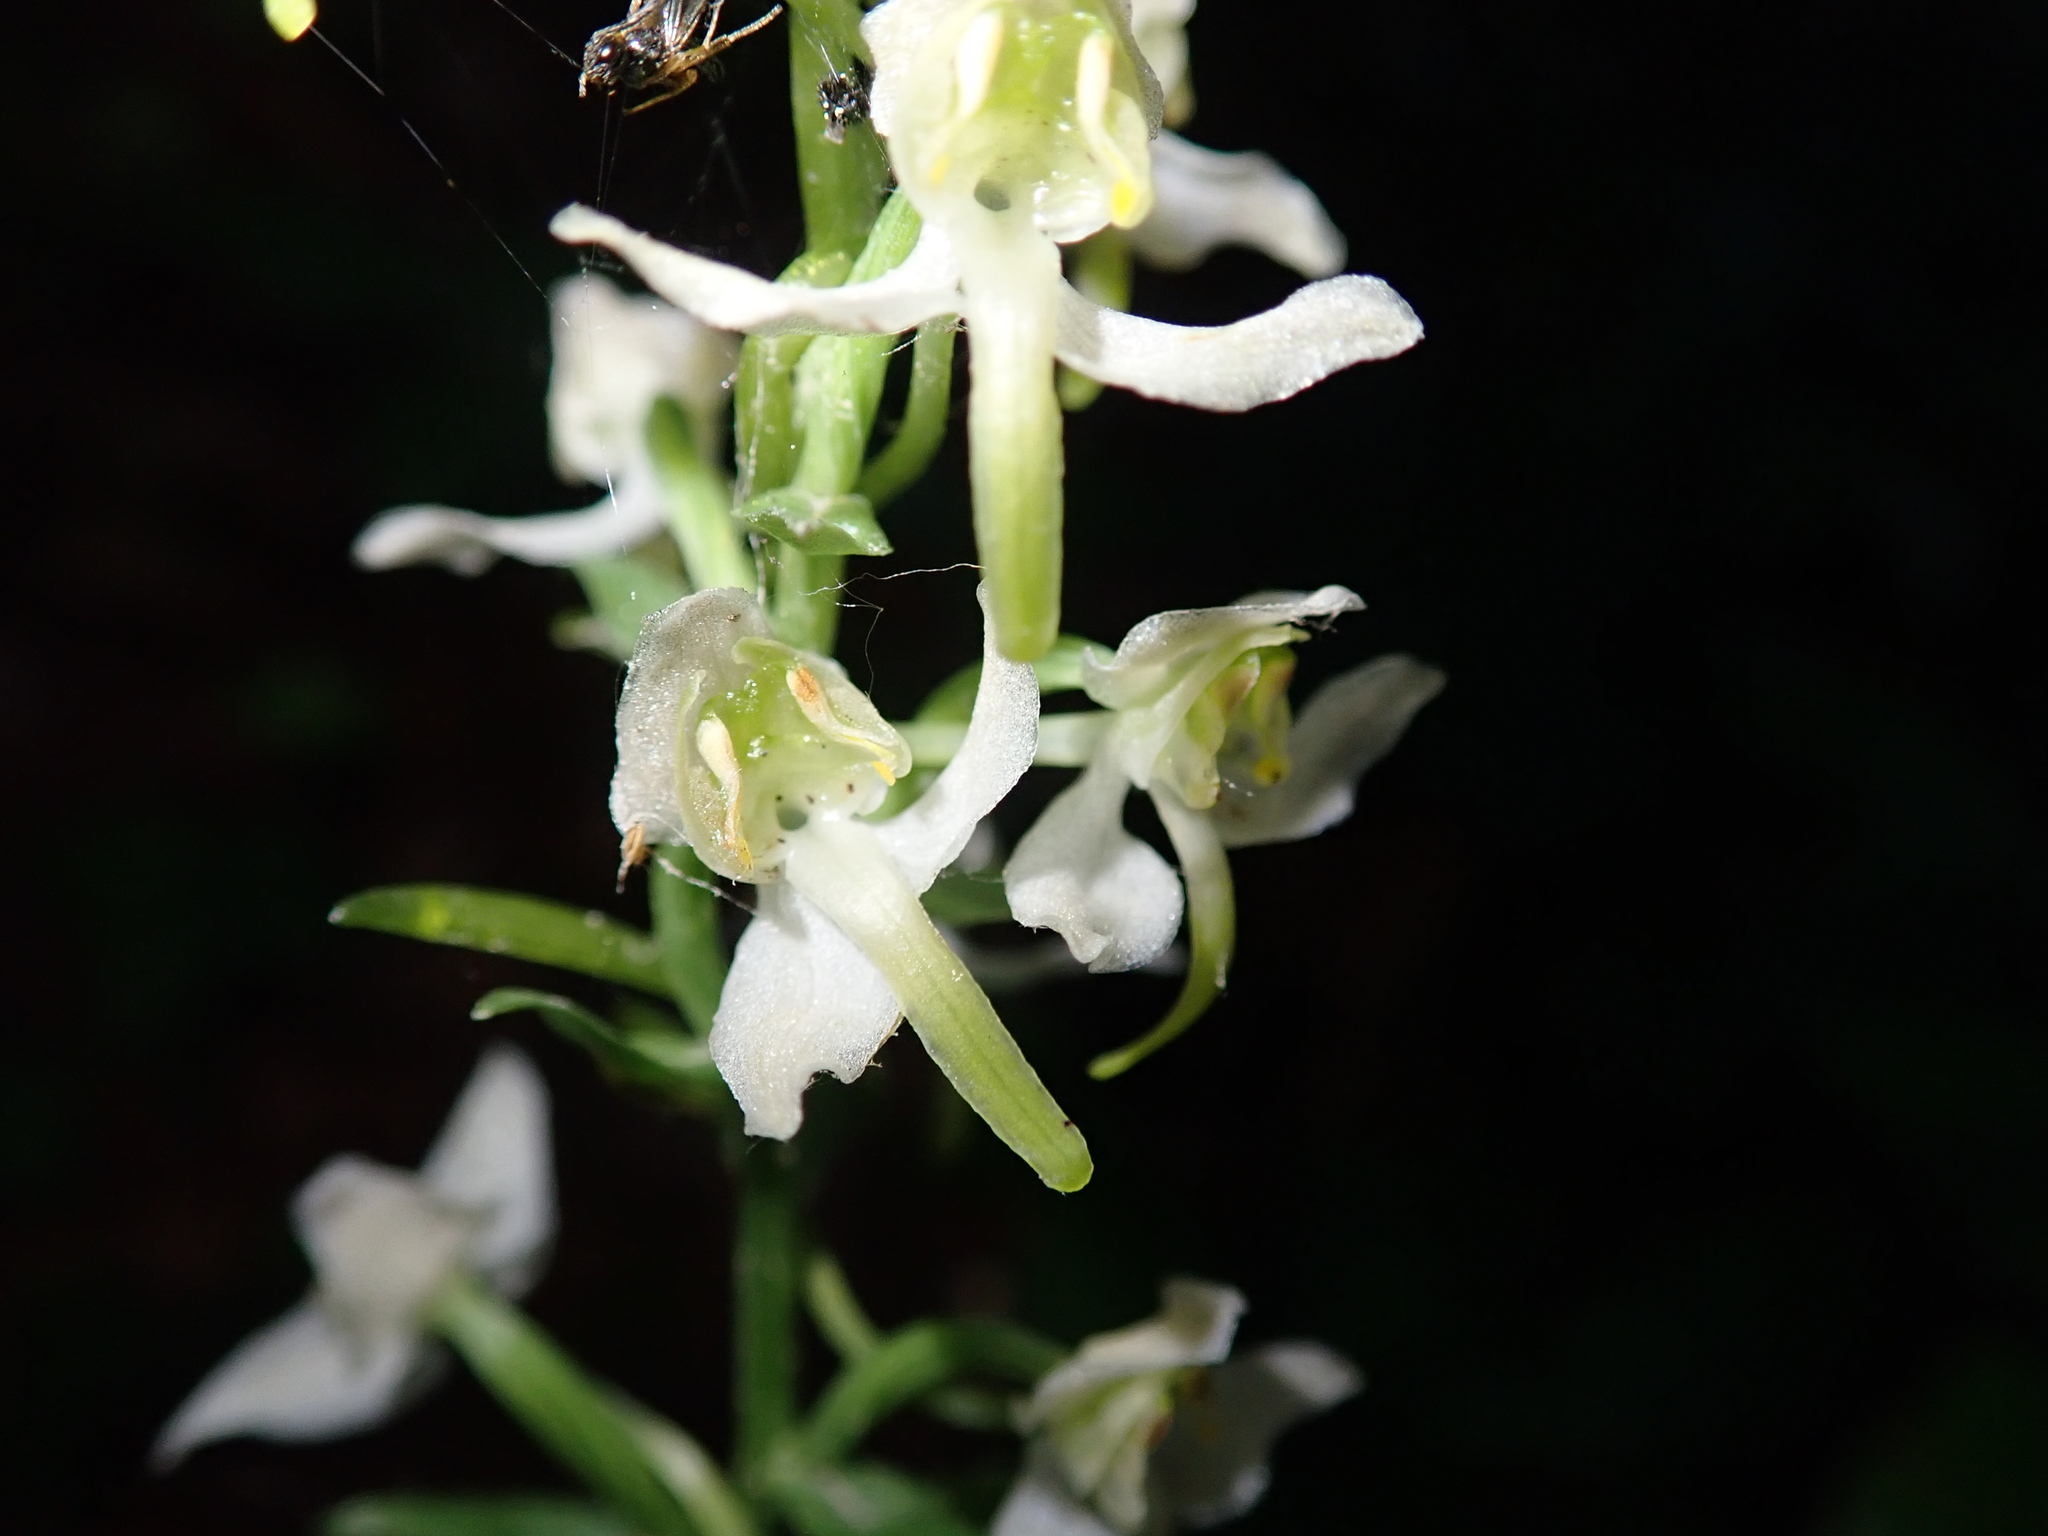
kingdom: Plantae
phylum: Tracheophyta
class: Liliopsida
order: Asparagales
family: Orchidaceae
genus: Platanthera
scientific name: Platanthera chlorantha
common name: Greater butterfly-orchid
